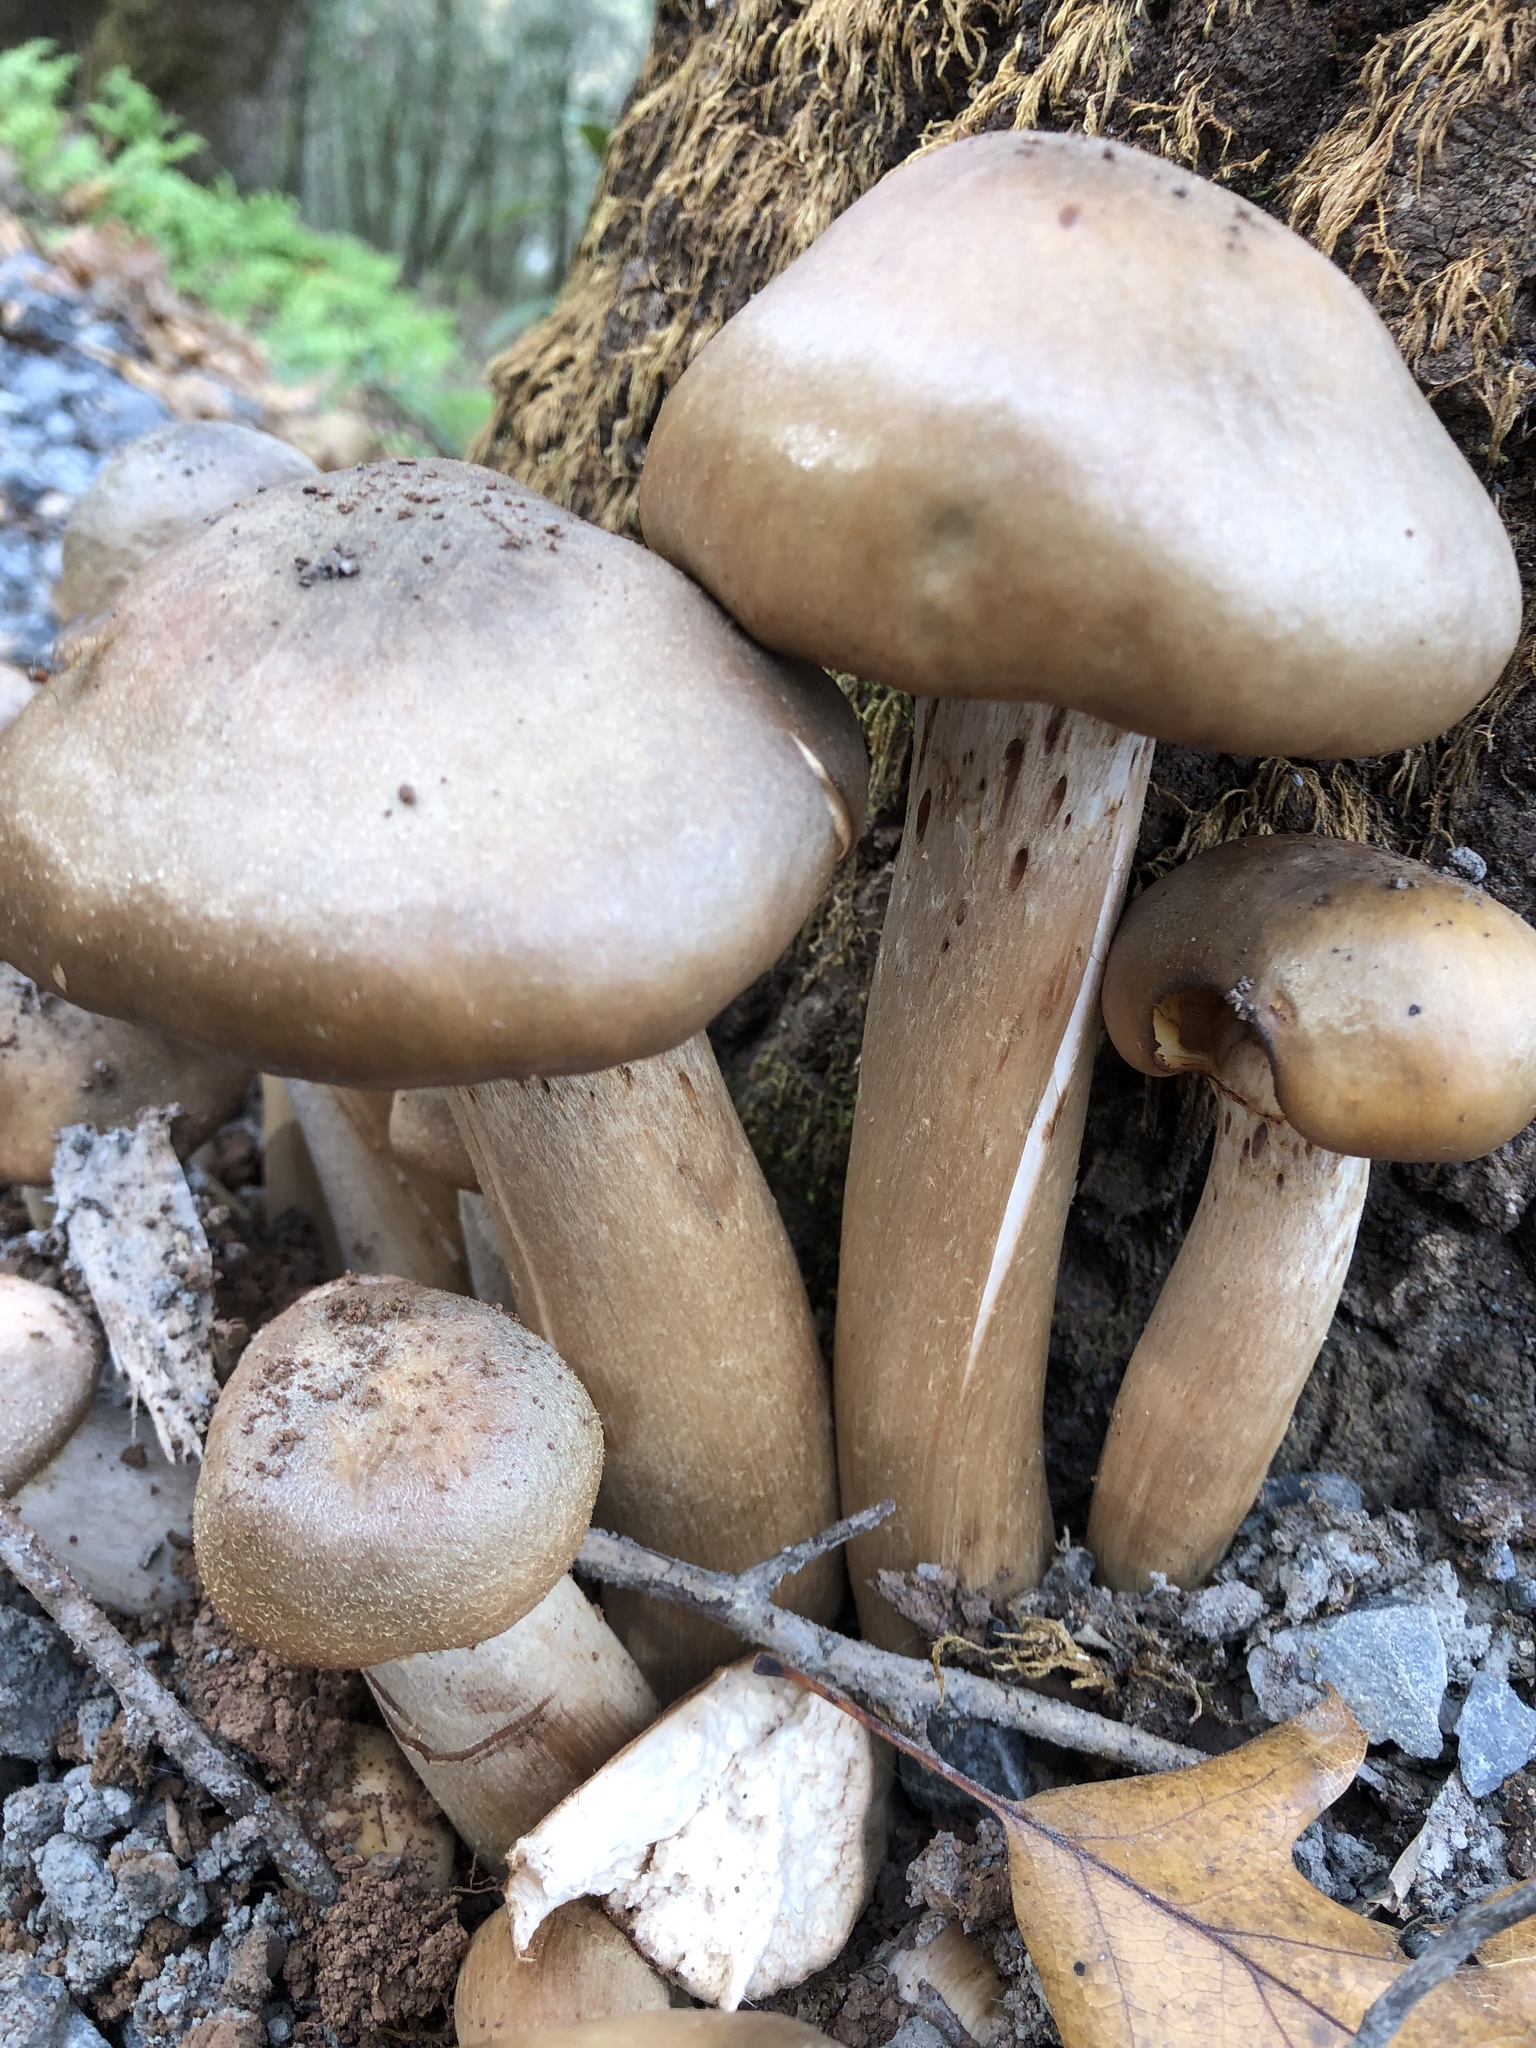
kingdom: Fungi
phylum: Basidiomycota
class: Agaricomycetes
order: Agaricales
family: Physalacriaceae
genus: Armillaria
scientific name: Armillaria mellea
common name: Honey fungus
